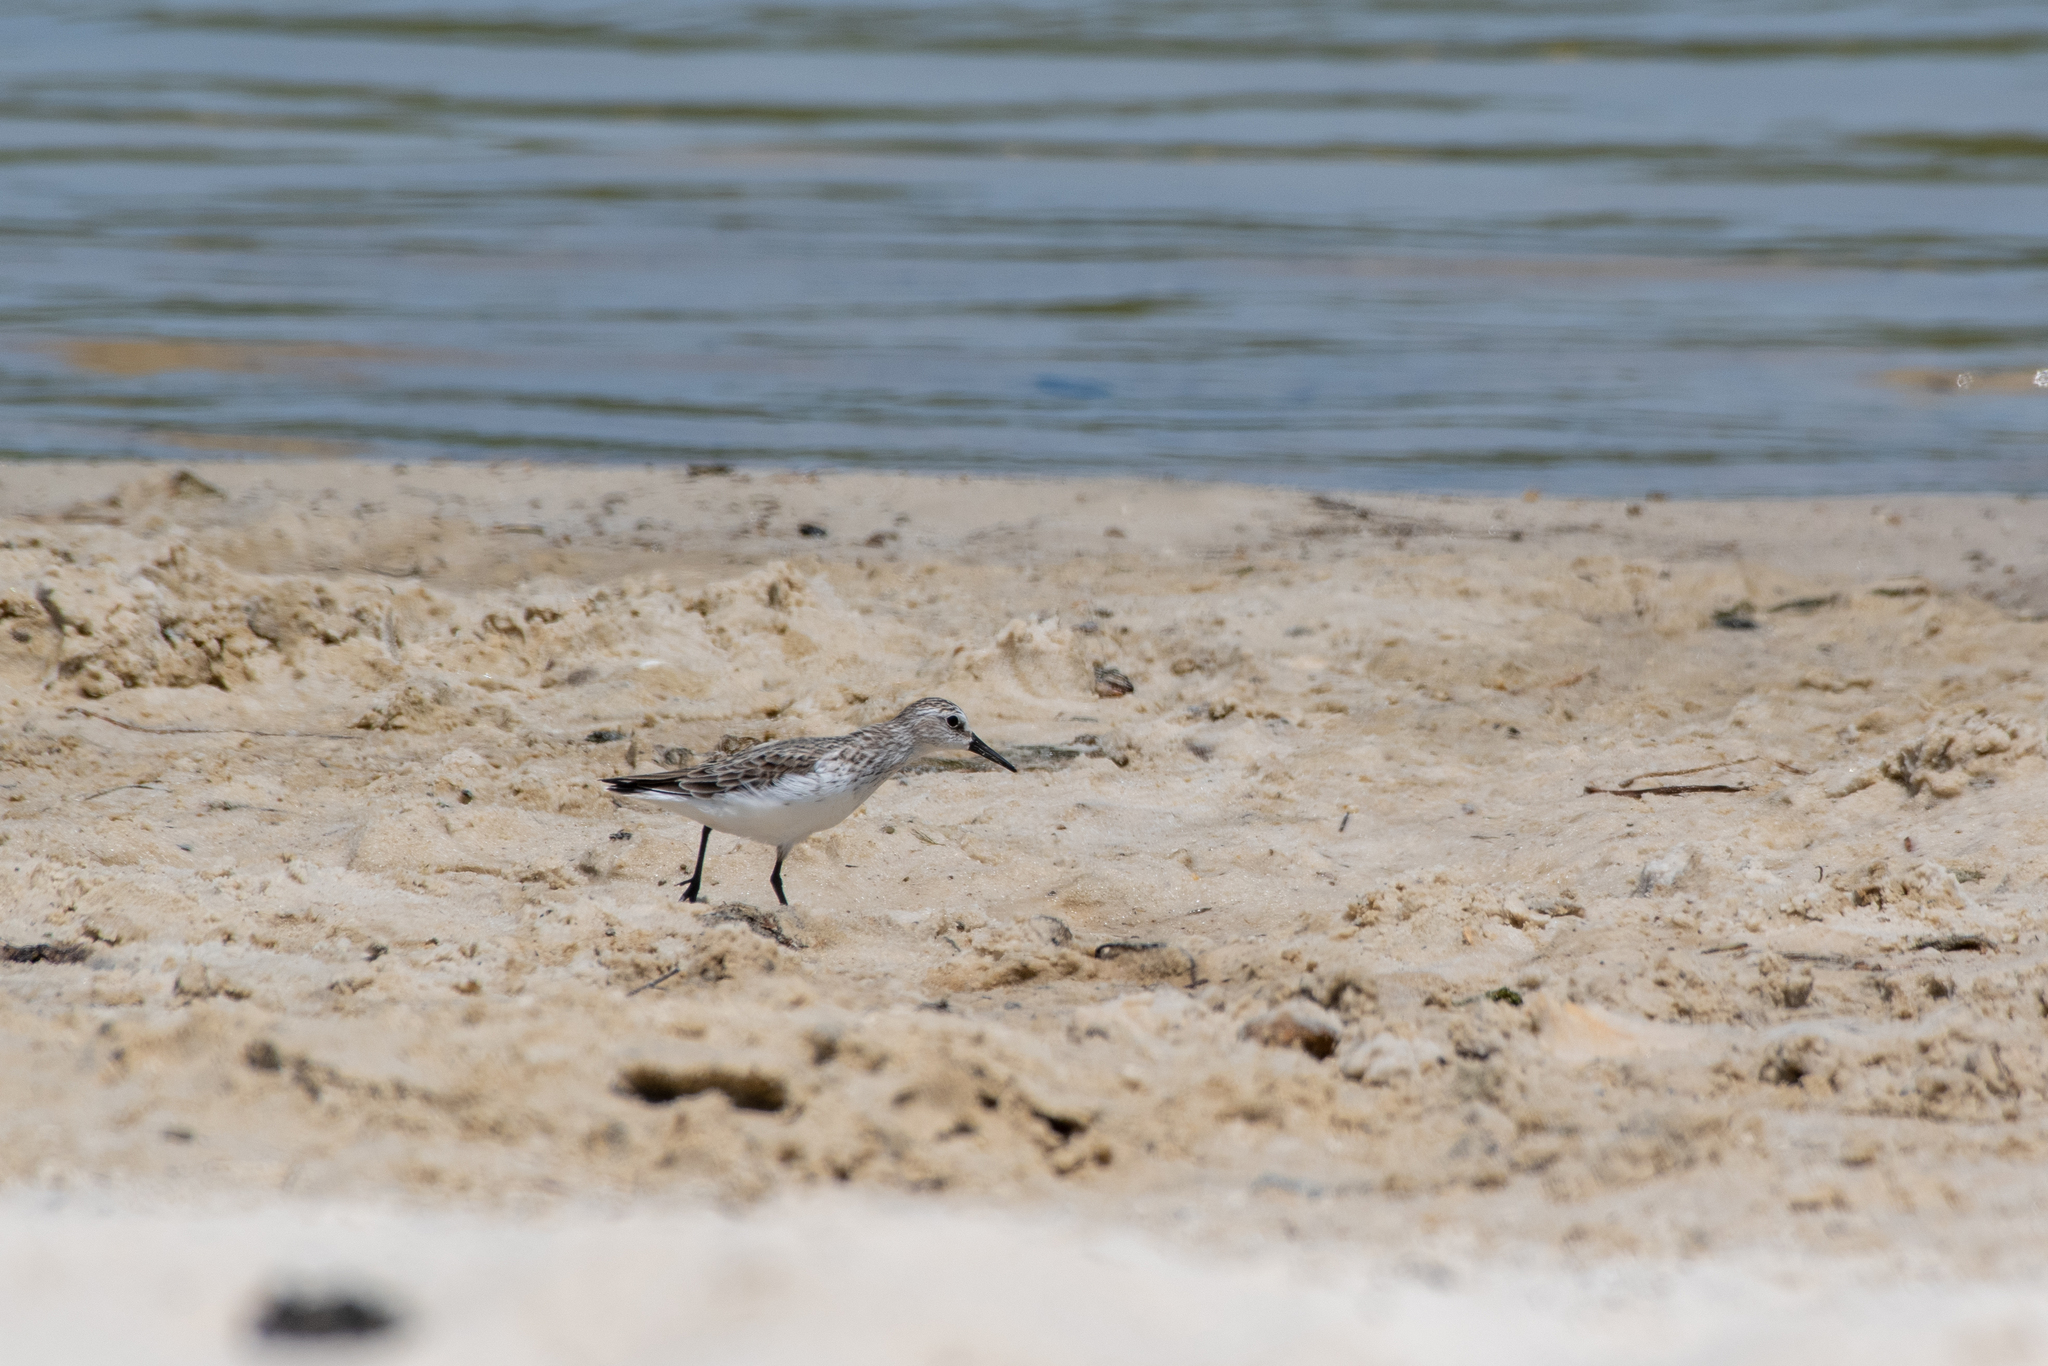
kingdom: Animalia
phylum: Chordata
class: Aves
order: Charadriiformes
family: Scolopacidae
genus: Calidris
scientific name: Calidris pusilla
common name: Semipalmated sandpiper
